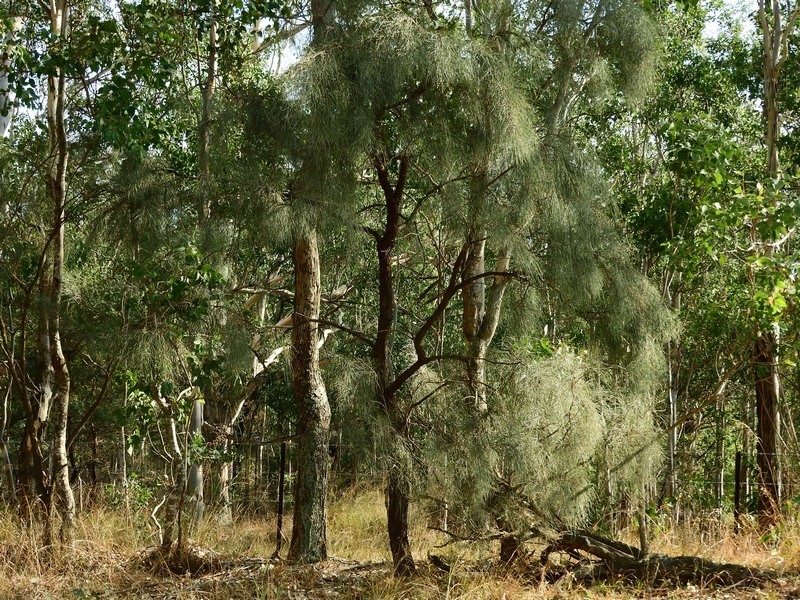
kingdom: Plantae
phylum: Tracheophyta
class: Magnoliopsida
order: Fabales
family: Fabaceae
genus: Jacksonia
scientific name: Jacksonia scoparia
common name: Dogwood
